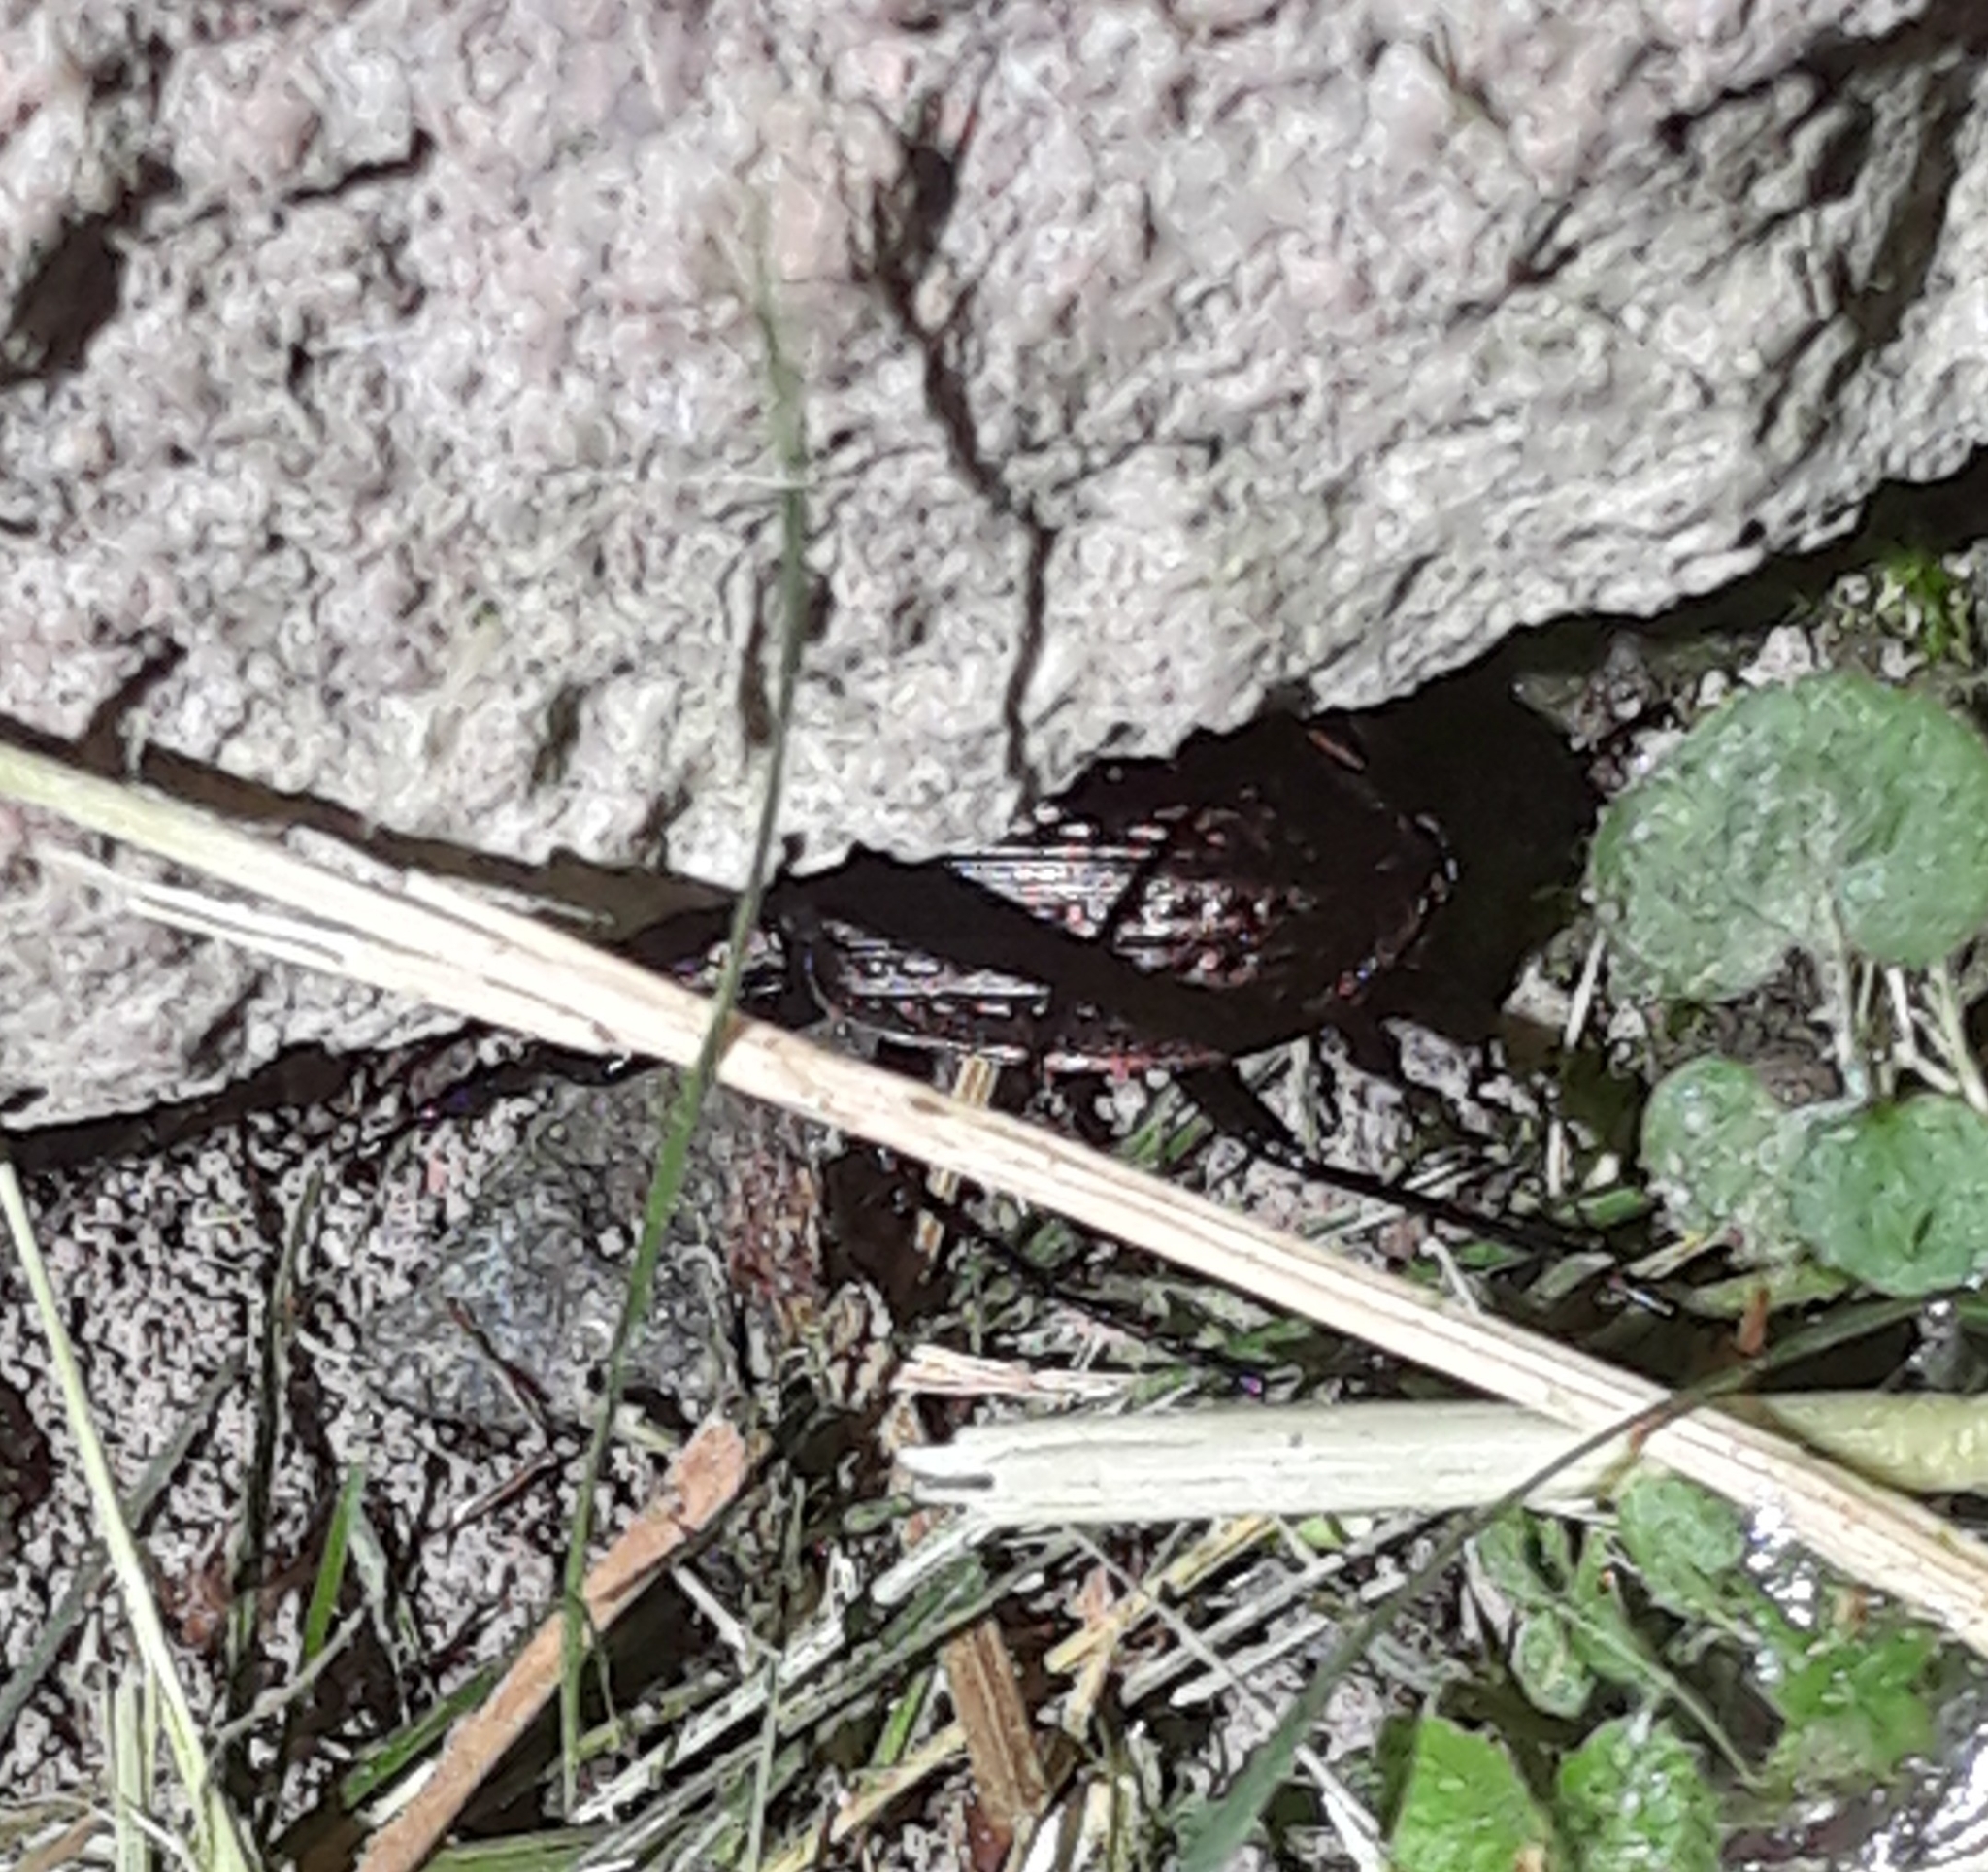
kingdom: Animalia
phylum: Arthropoda
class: Insecta
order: Coleoptera
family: Carabidae
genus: Carabus
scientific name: Carabus granulatus
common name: Granulate ground beetle
